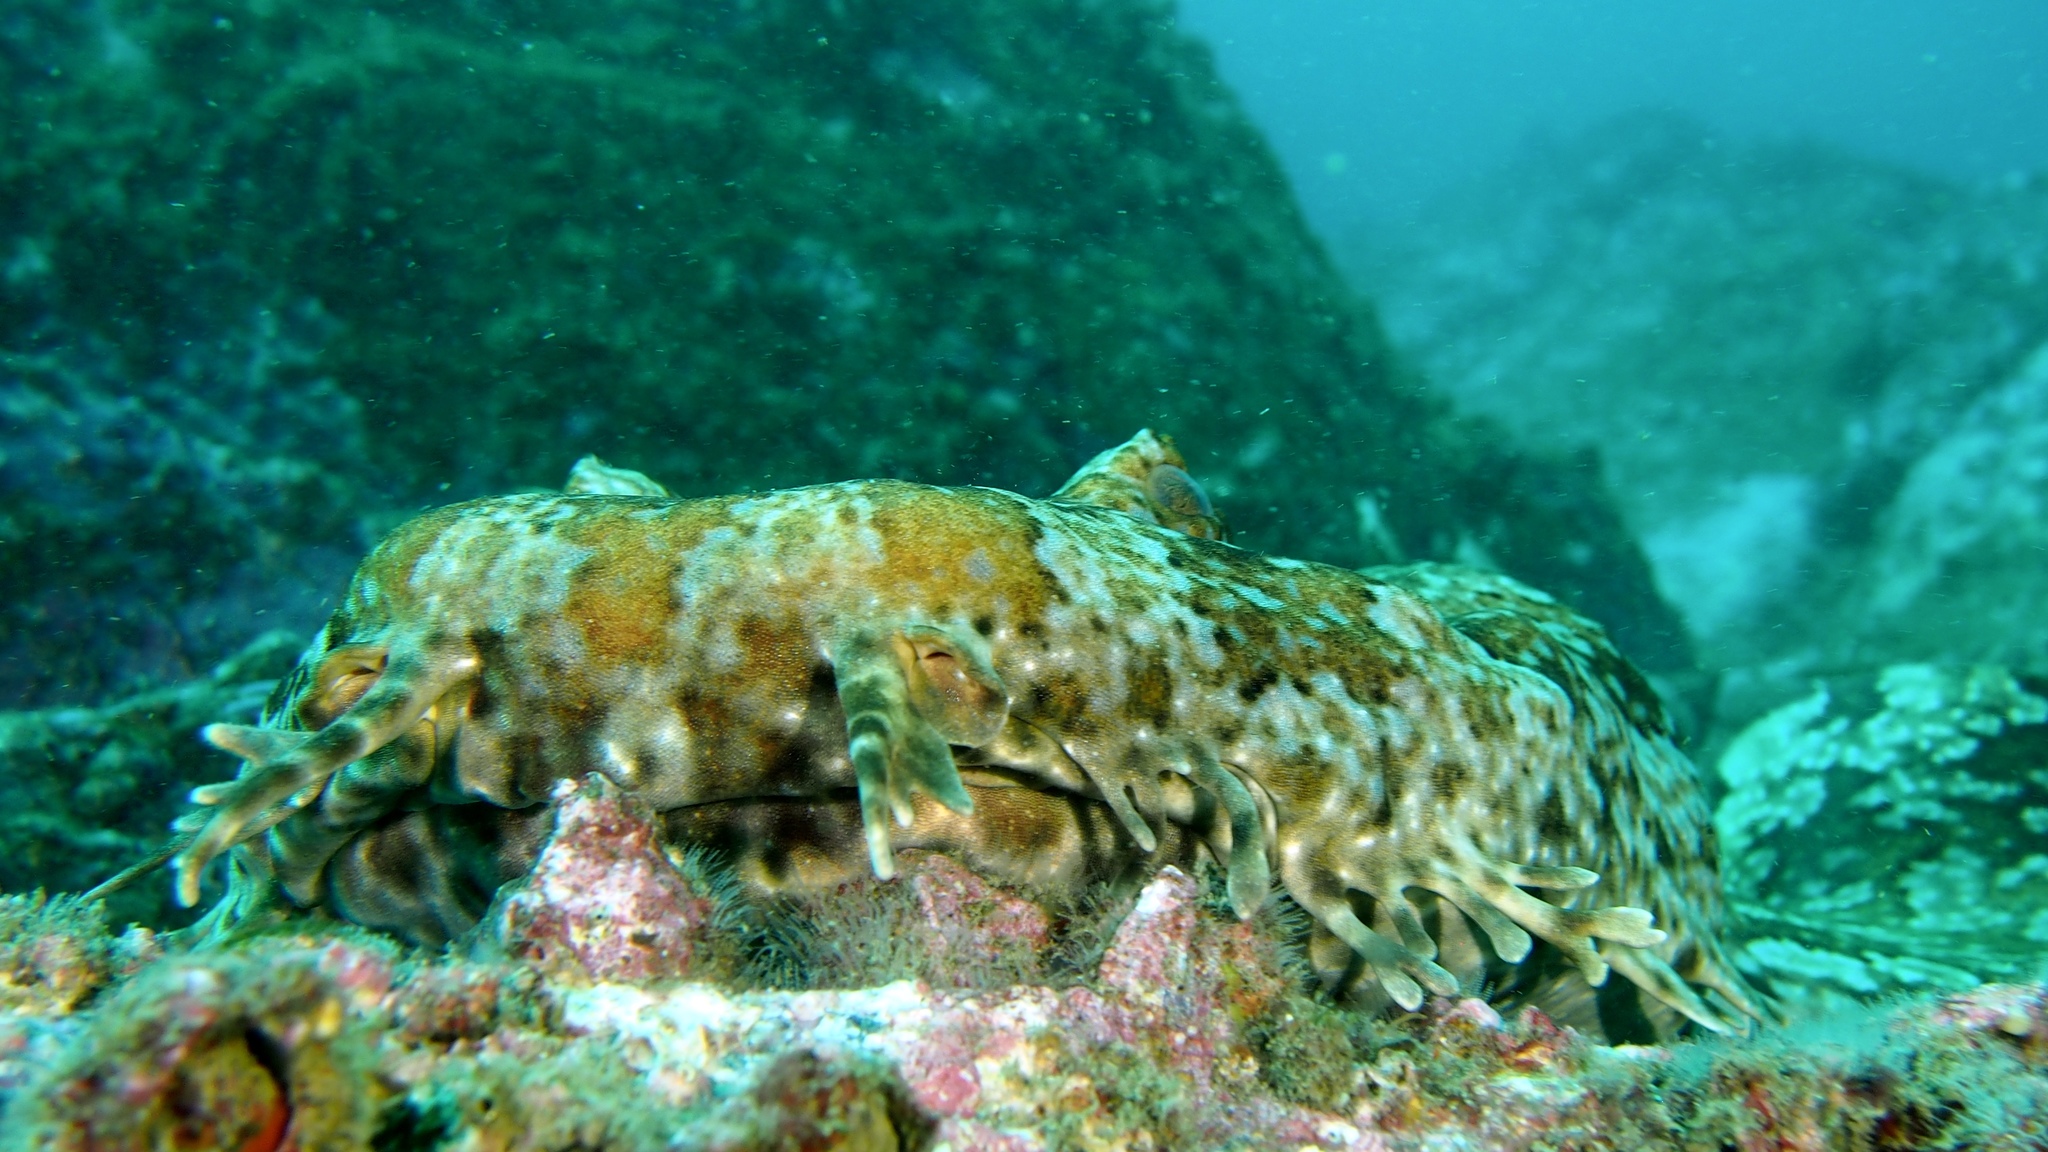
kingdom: Animalia
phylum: Chordata
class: Elasmobranchii
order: Orectolobiformes
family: Orectolobidae
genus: Orectolobus
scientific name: Orectolobus halei
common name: Banded wobbegong
